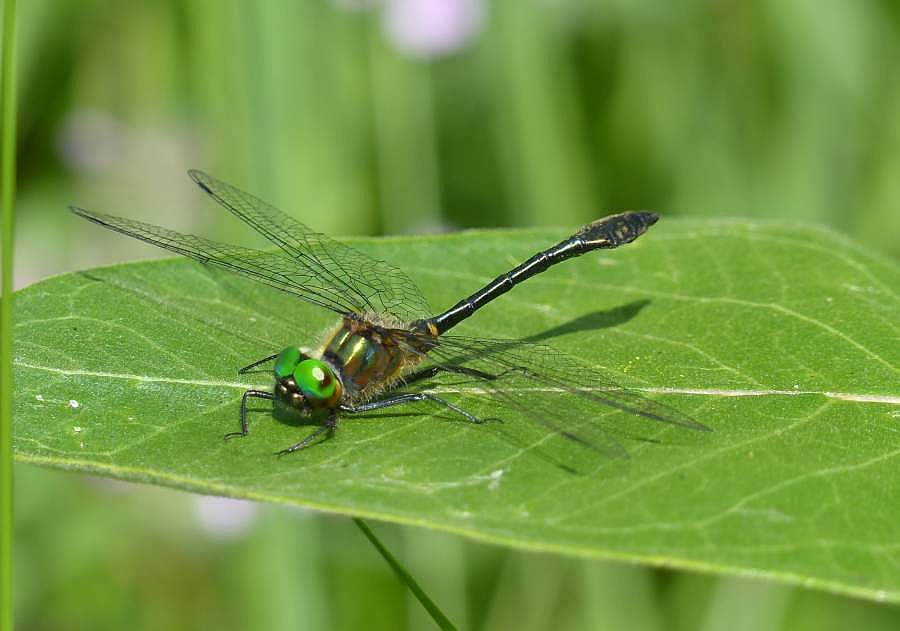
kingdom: Animalia
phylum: Arthropoda
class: Insecta
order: Odonata
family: Corduliidae
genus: Dorocordulia
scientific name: Dorocordulia libera
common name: Racket-tailed emerald
